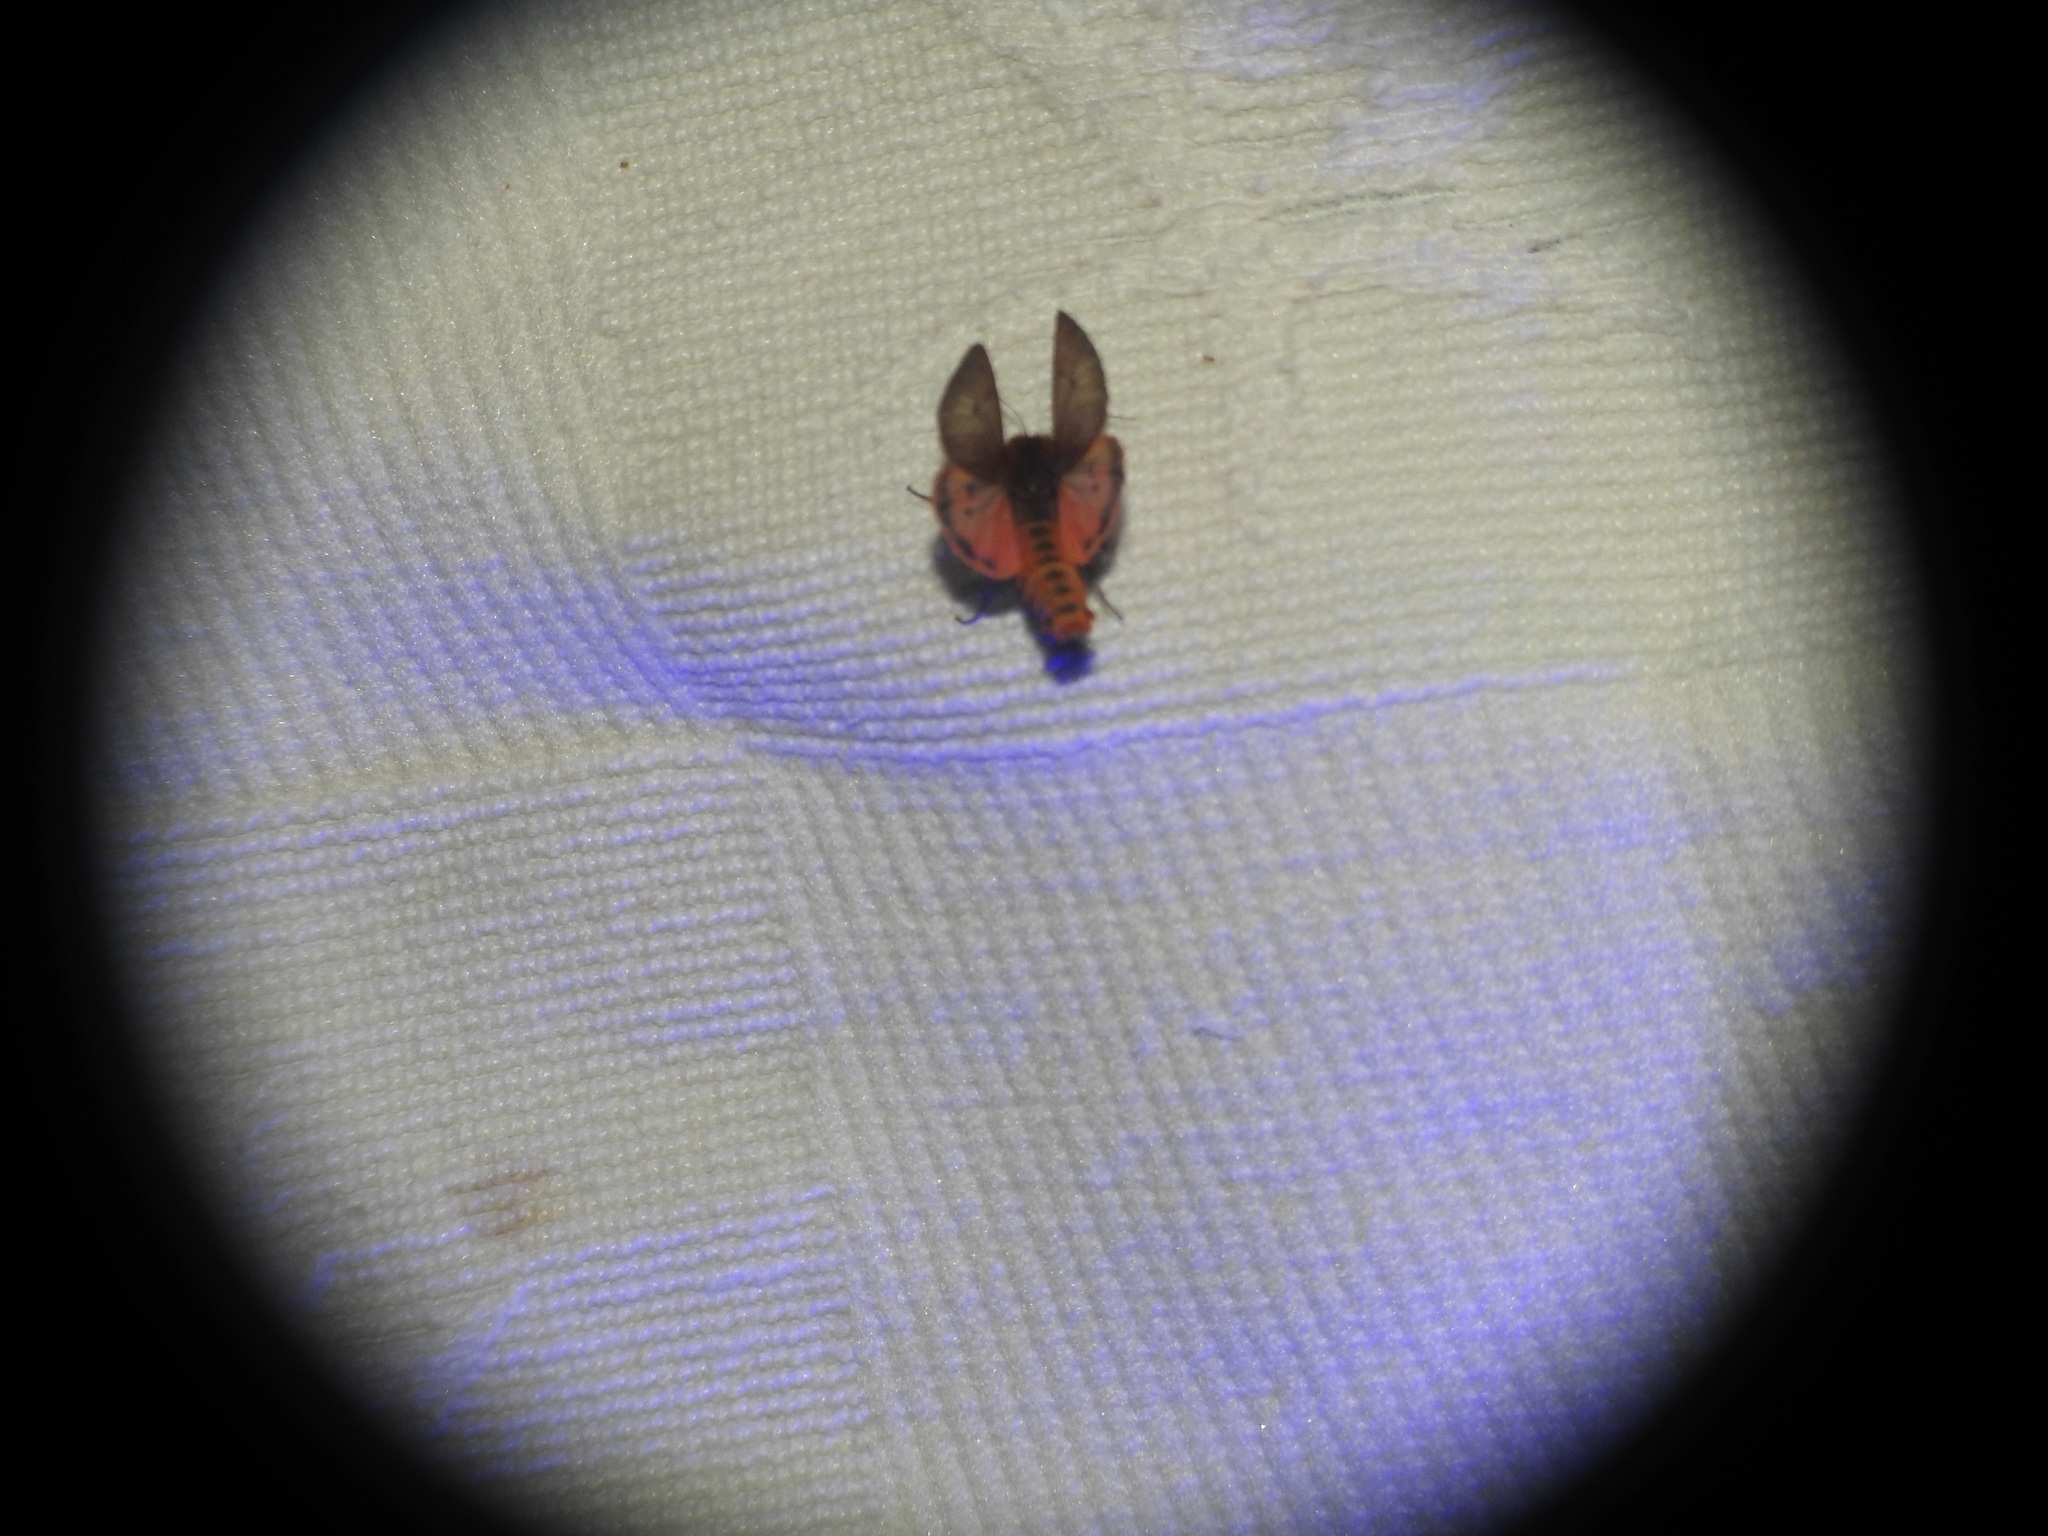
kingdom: Animalia
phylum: Arthropoda
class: Insecta
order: Lepidoptera
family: Erebidae
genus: Phragmatobia
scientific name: Phragmatobia fuliginosa
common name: Ruby tiger
